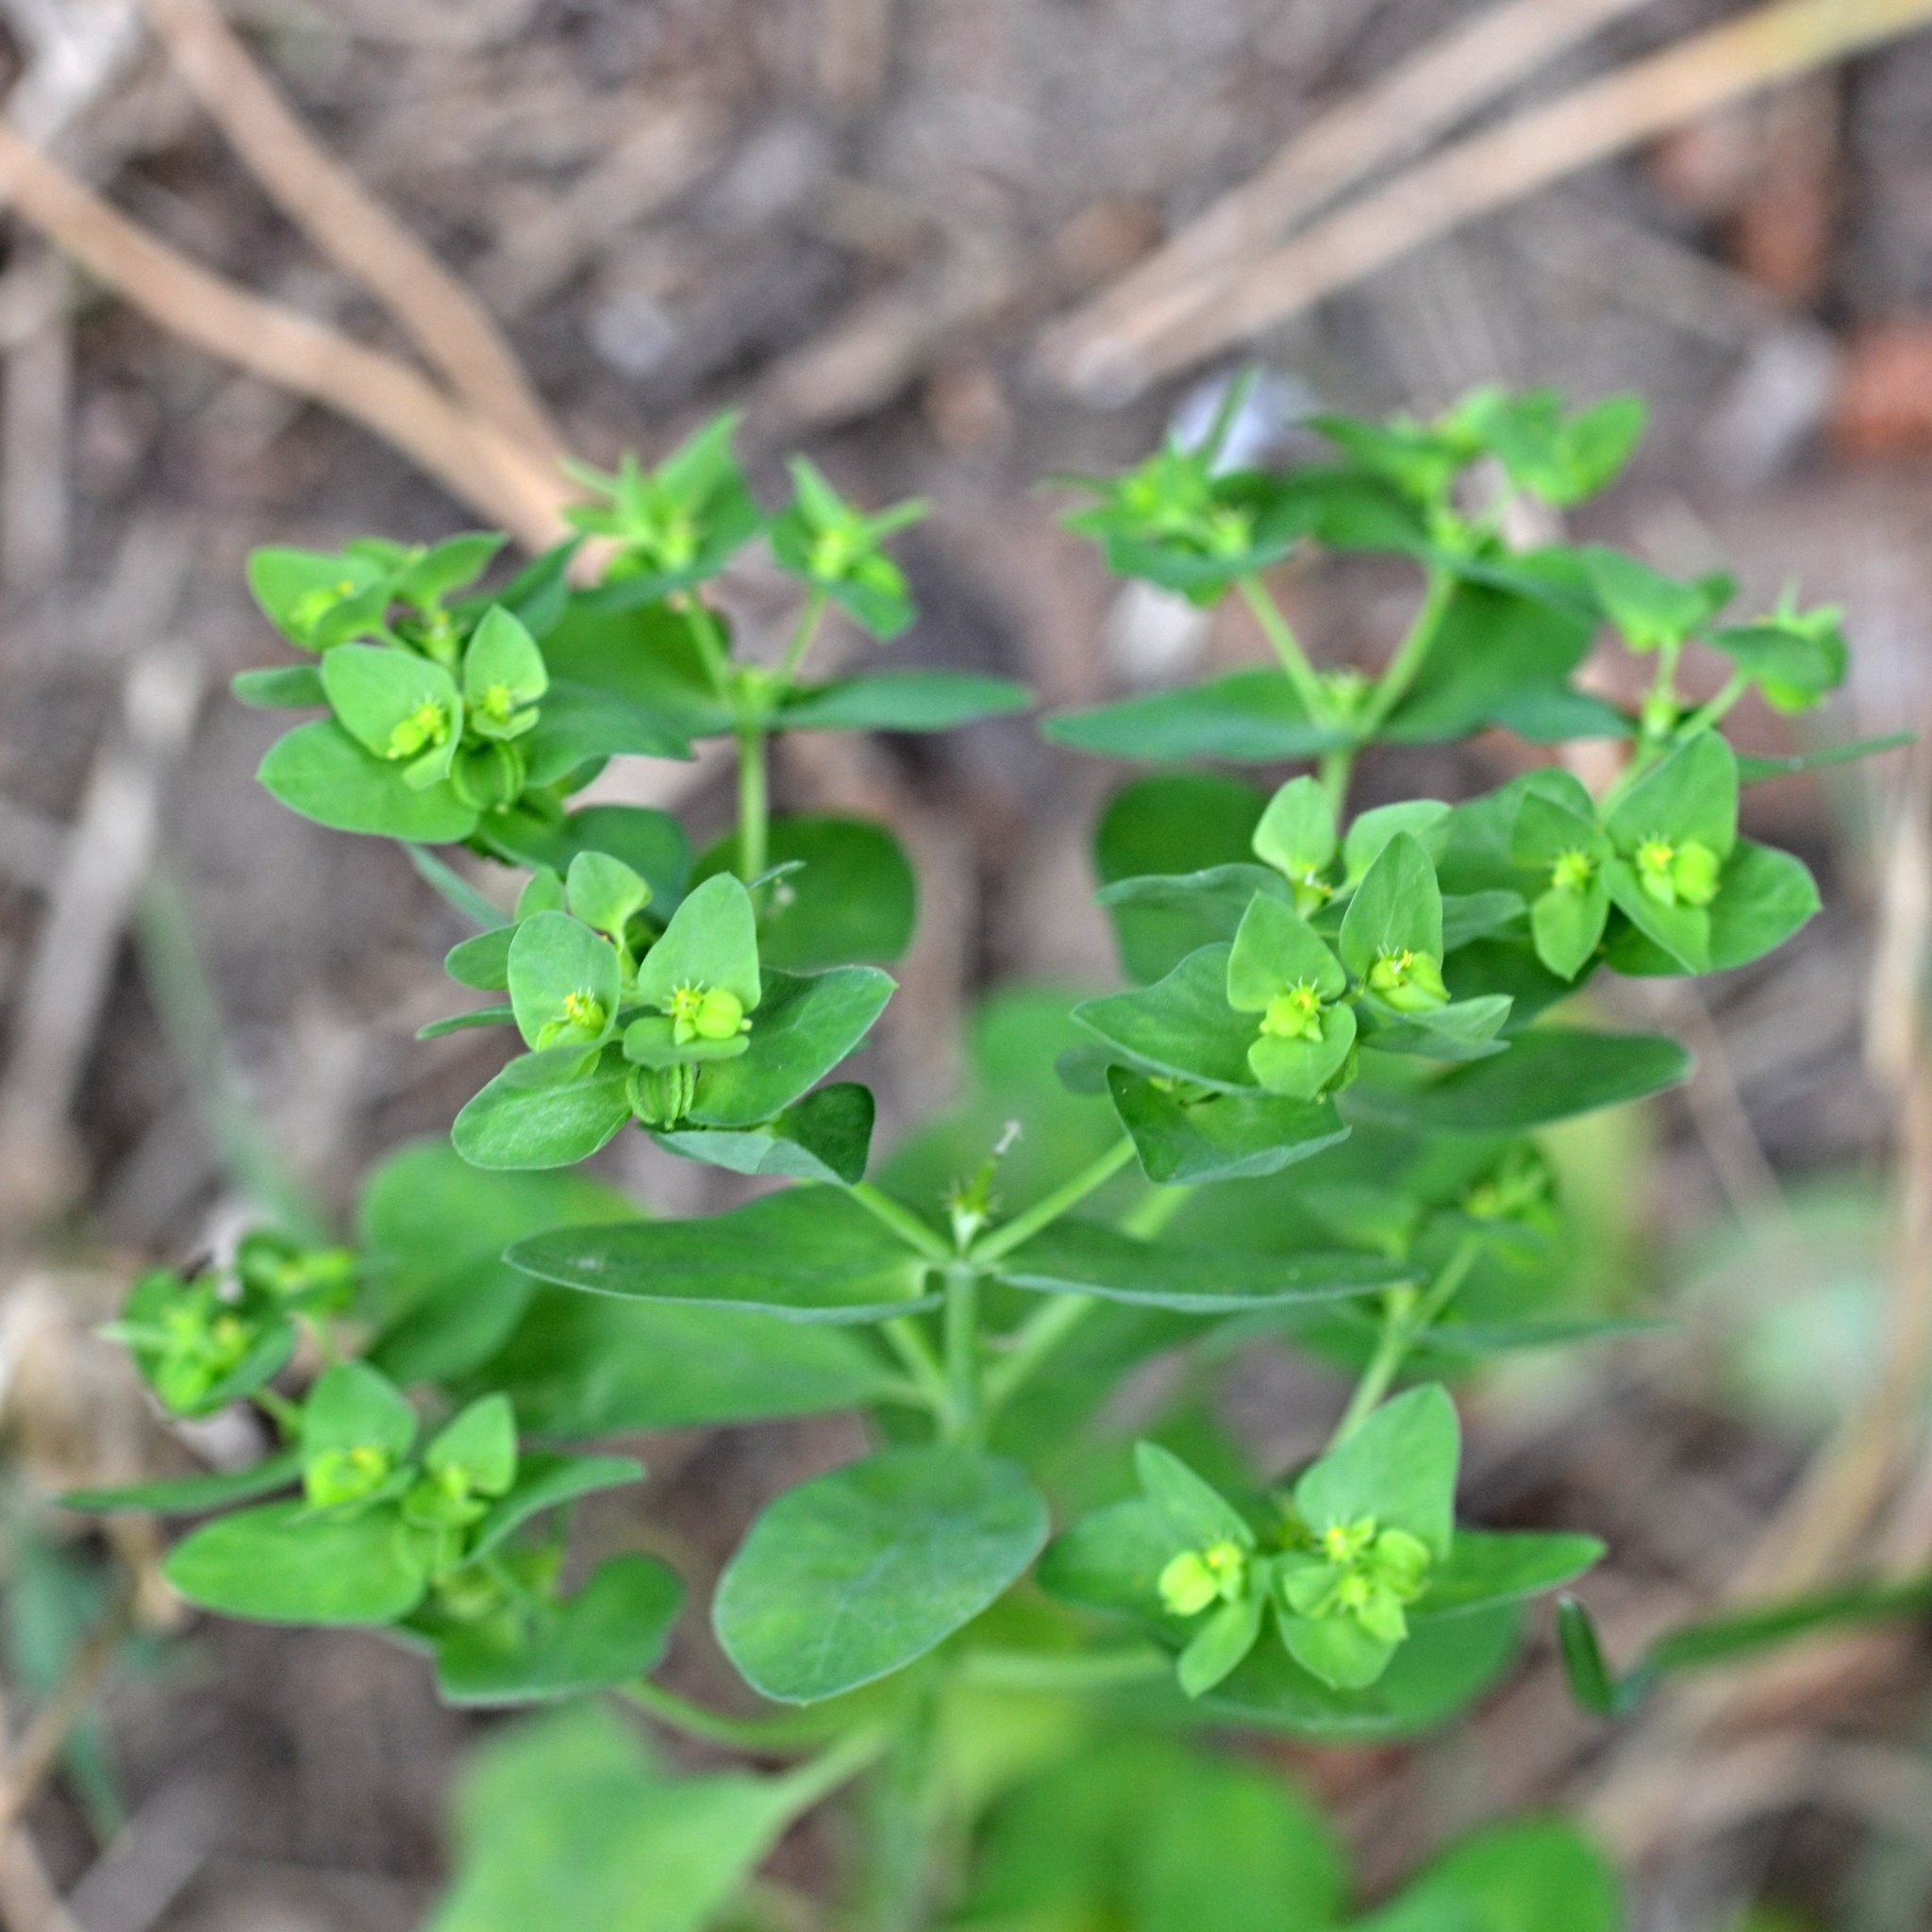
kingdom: Plantae
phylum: Tracheophyta
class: Magnoliopsida
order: Malpighiales
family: Euphorbiaceae
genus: Euphorbia
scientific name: Euphorbia peplus
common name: Petty spurge
